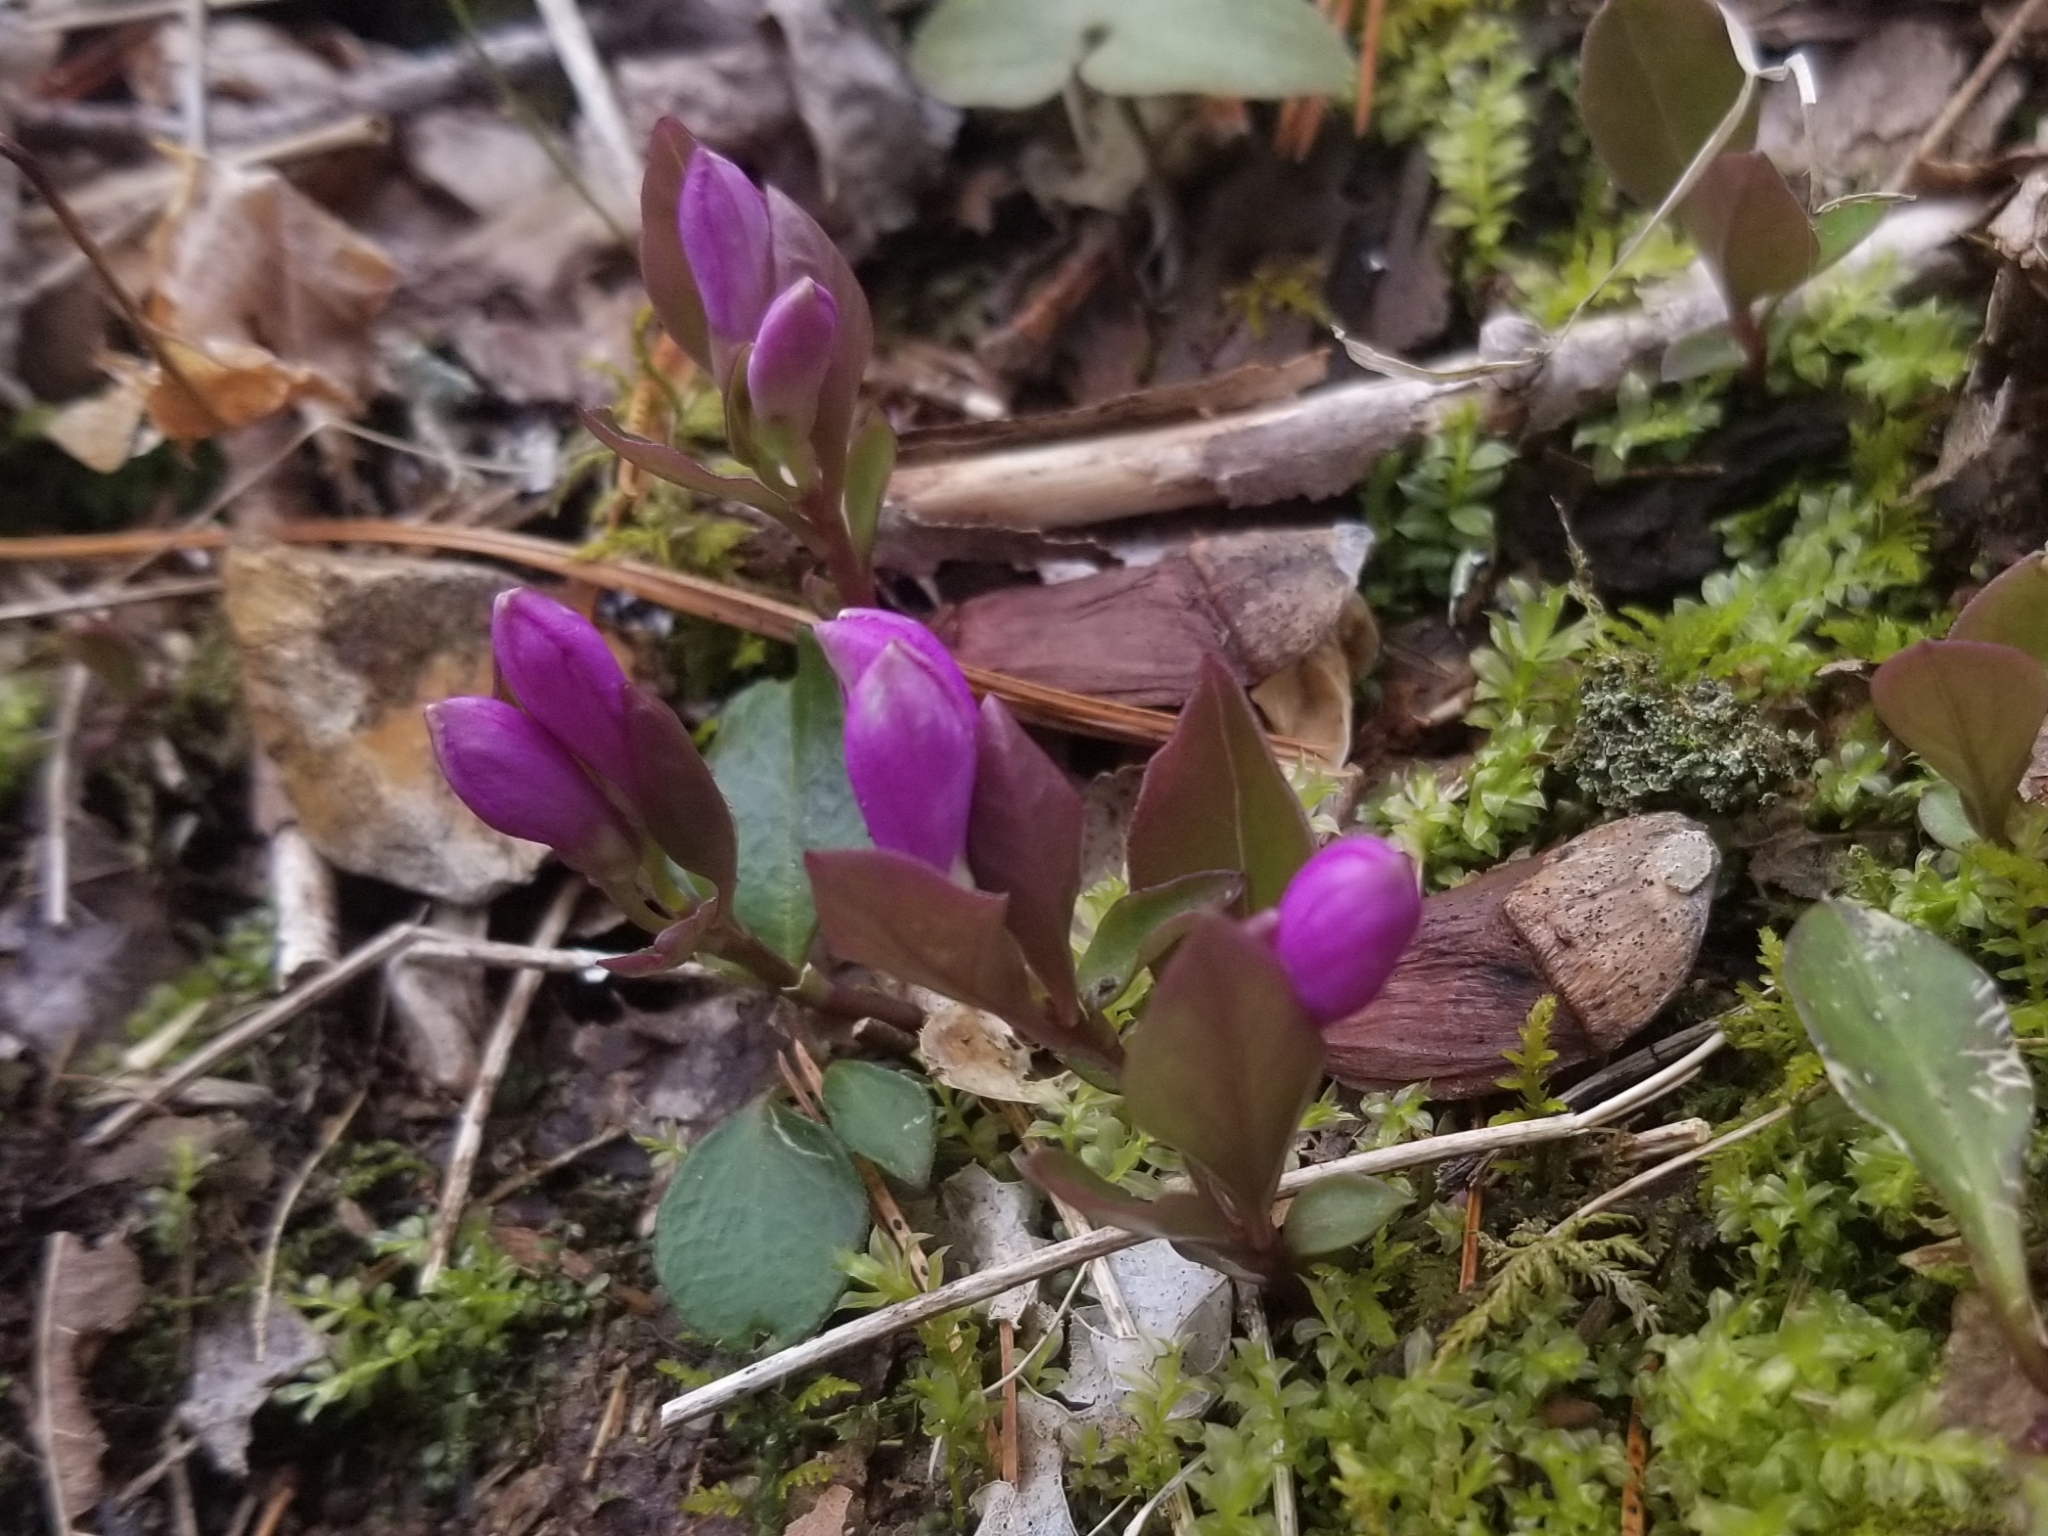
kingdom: Plantae
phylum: Tracheophyta
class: Magnoliopsida
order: Fabales
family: Polygalaceae
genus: Polygaloides
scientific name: Polygaloides paucifolia
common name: Bird-on-the-wing
